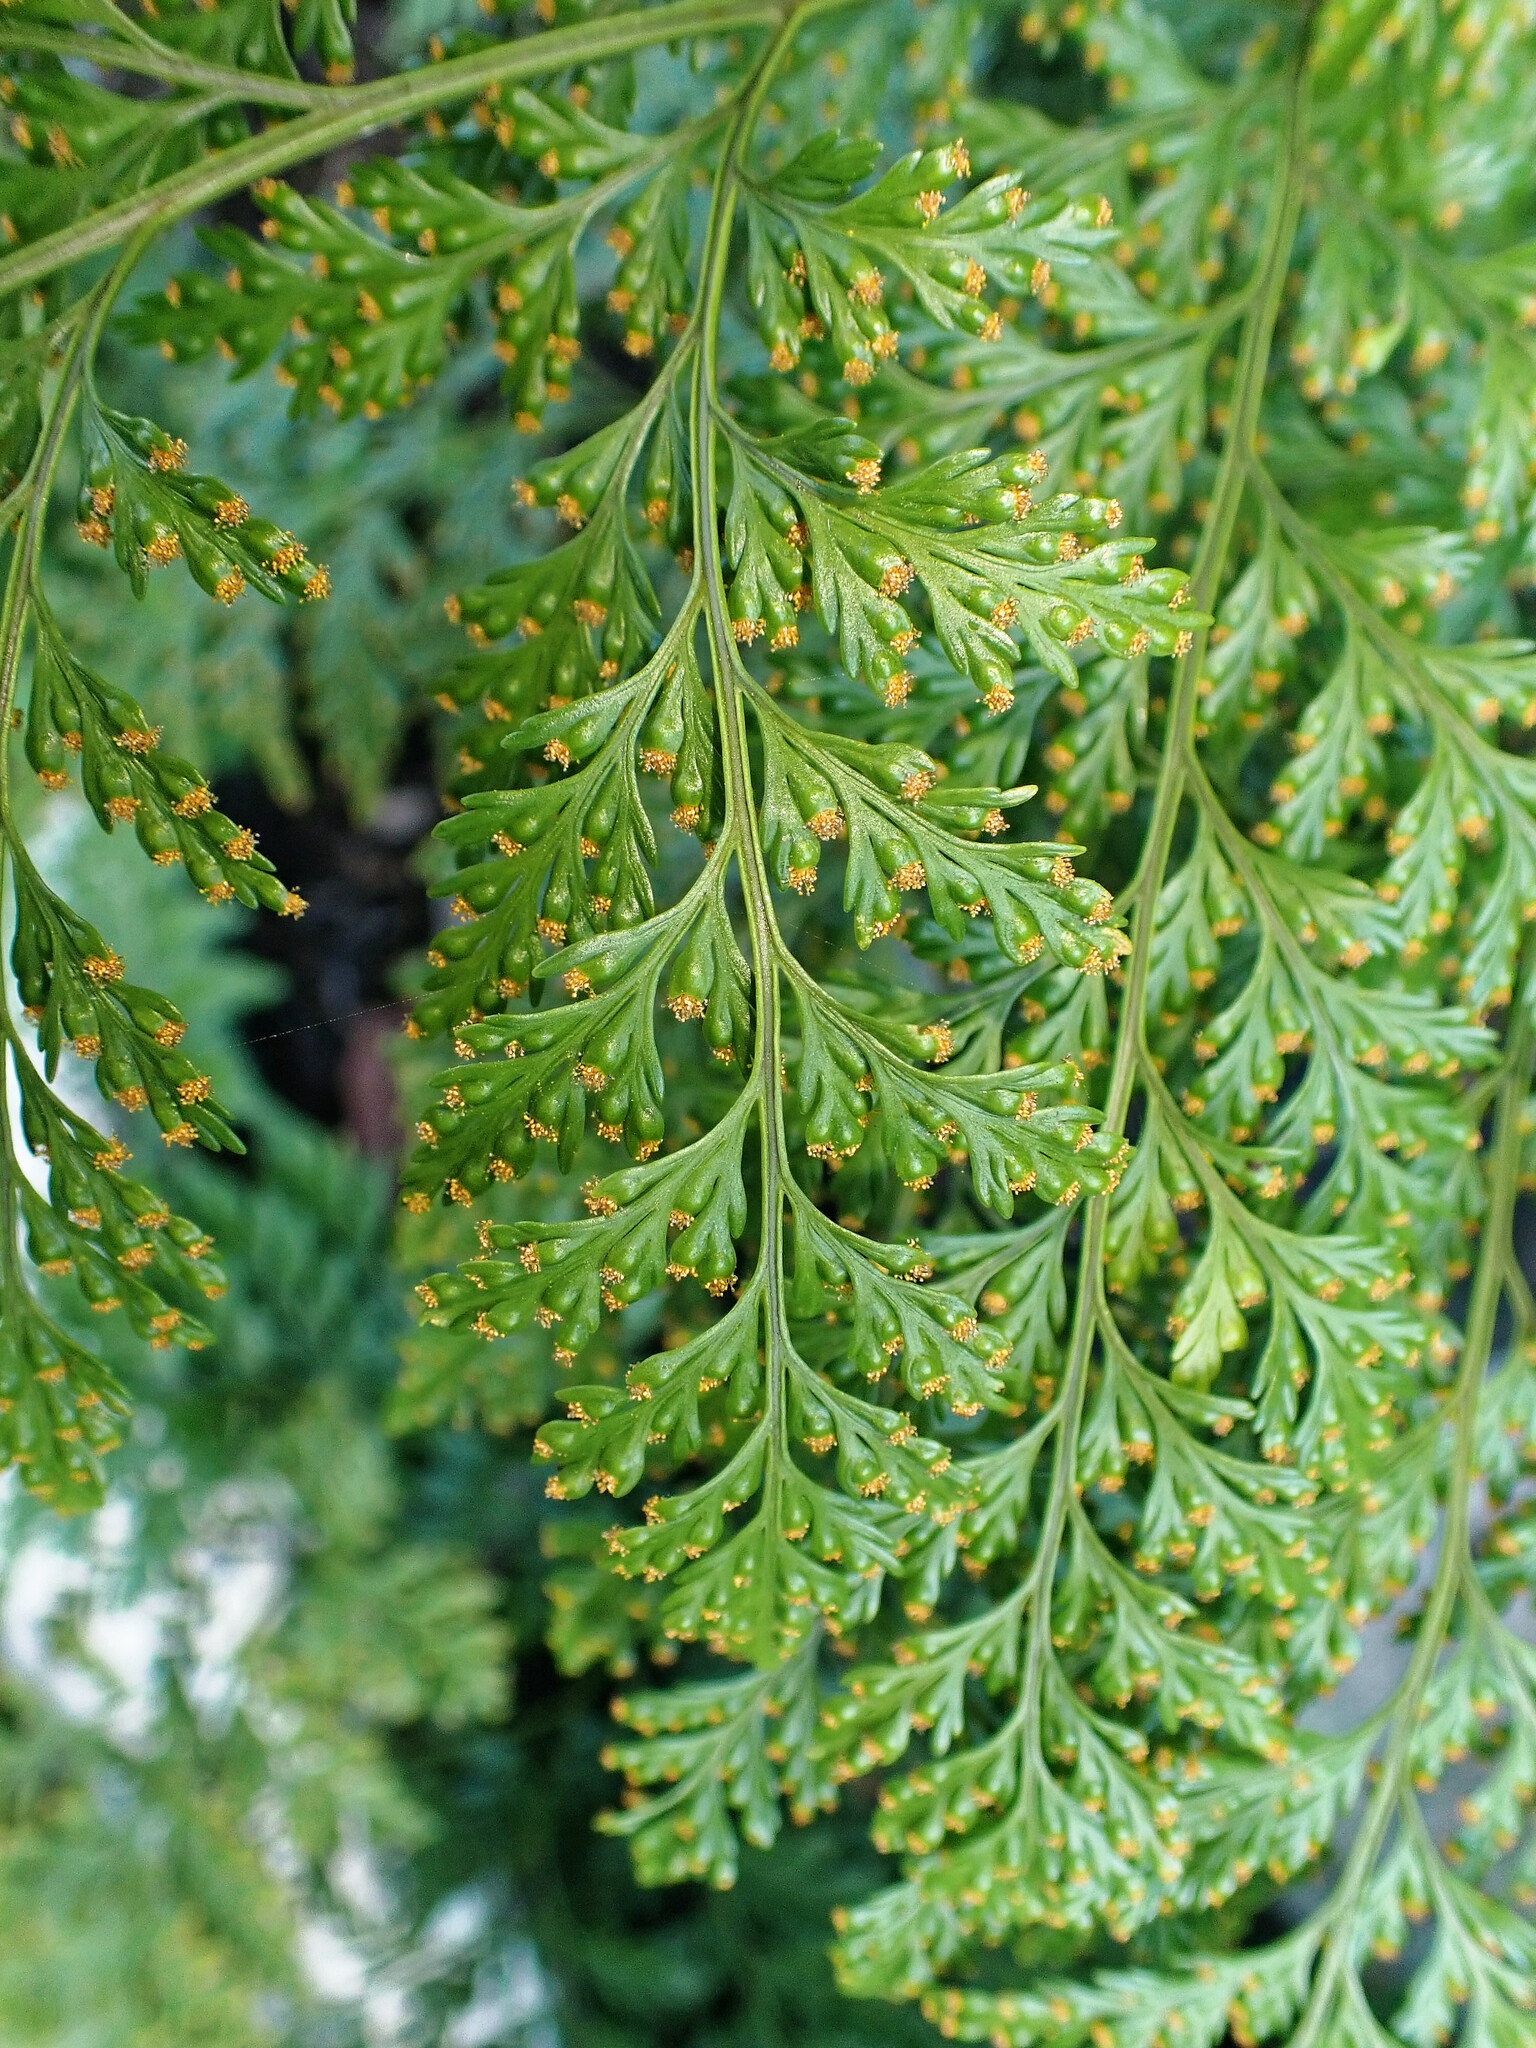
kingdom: Plantae
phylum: Tracheophyta
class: Polypodiopsida
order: Polypodiales
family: Davalliaceae
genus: Davallia
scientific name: Davallia canariensis
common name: Hare's-foot fern
